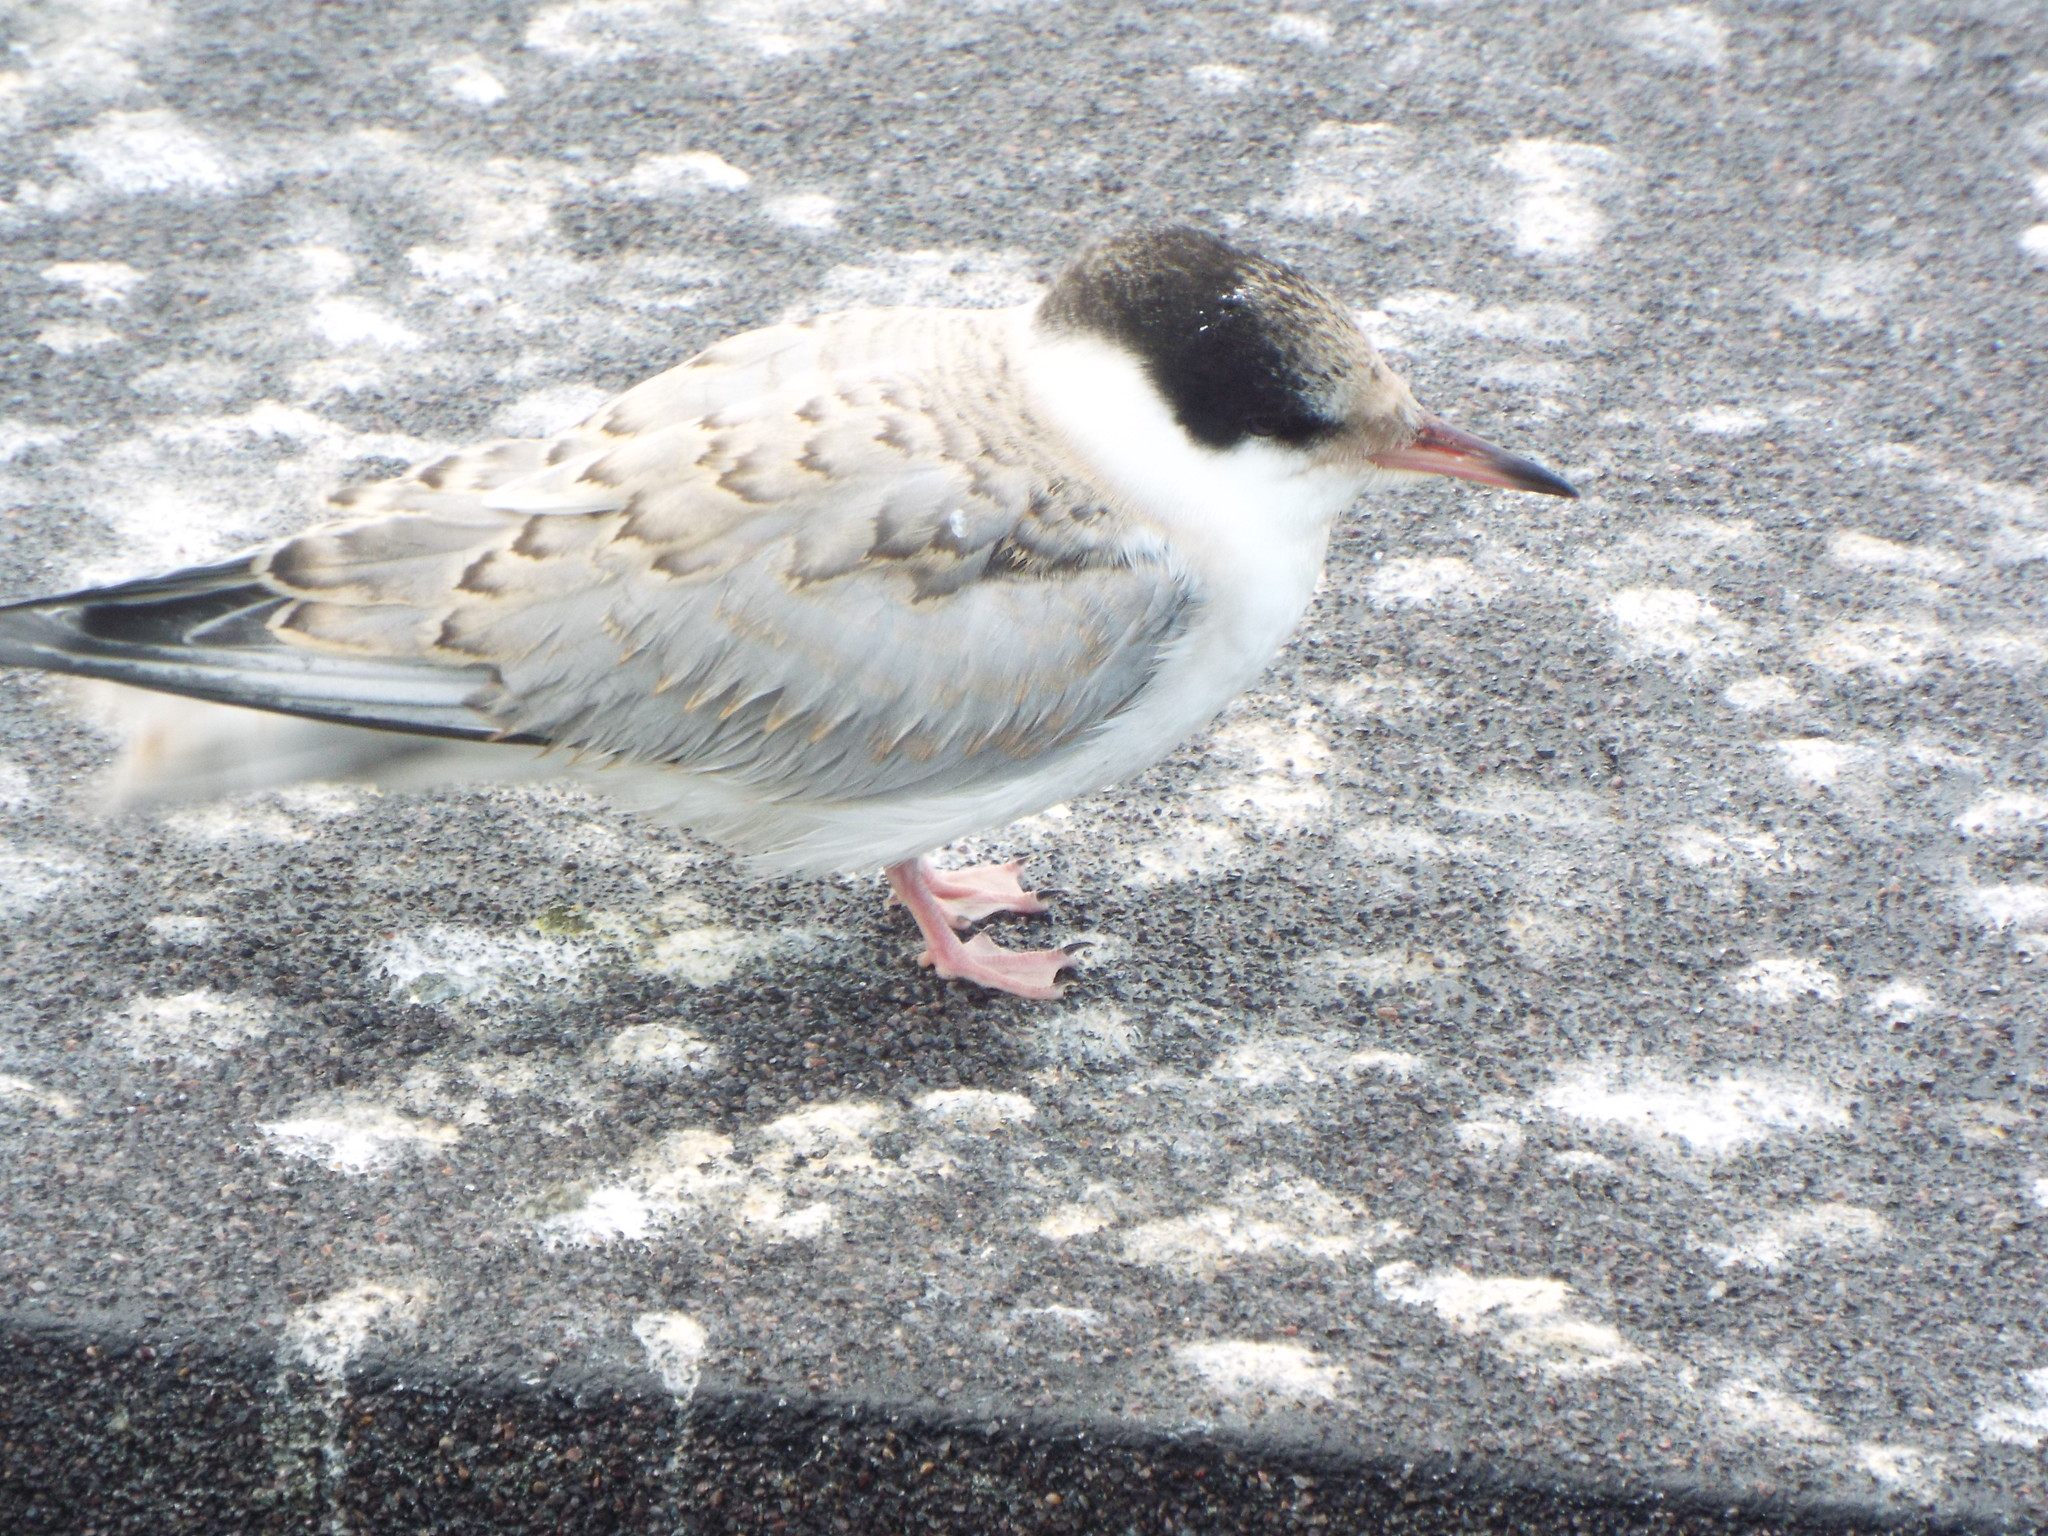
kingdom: Animalia
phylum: Chordata
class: Aves
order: Charadriiformes
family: Laridae
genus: Sterna
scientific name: Sterna hirundo
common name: Common tern
